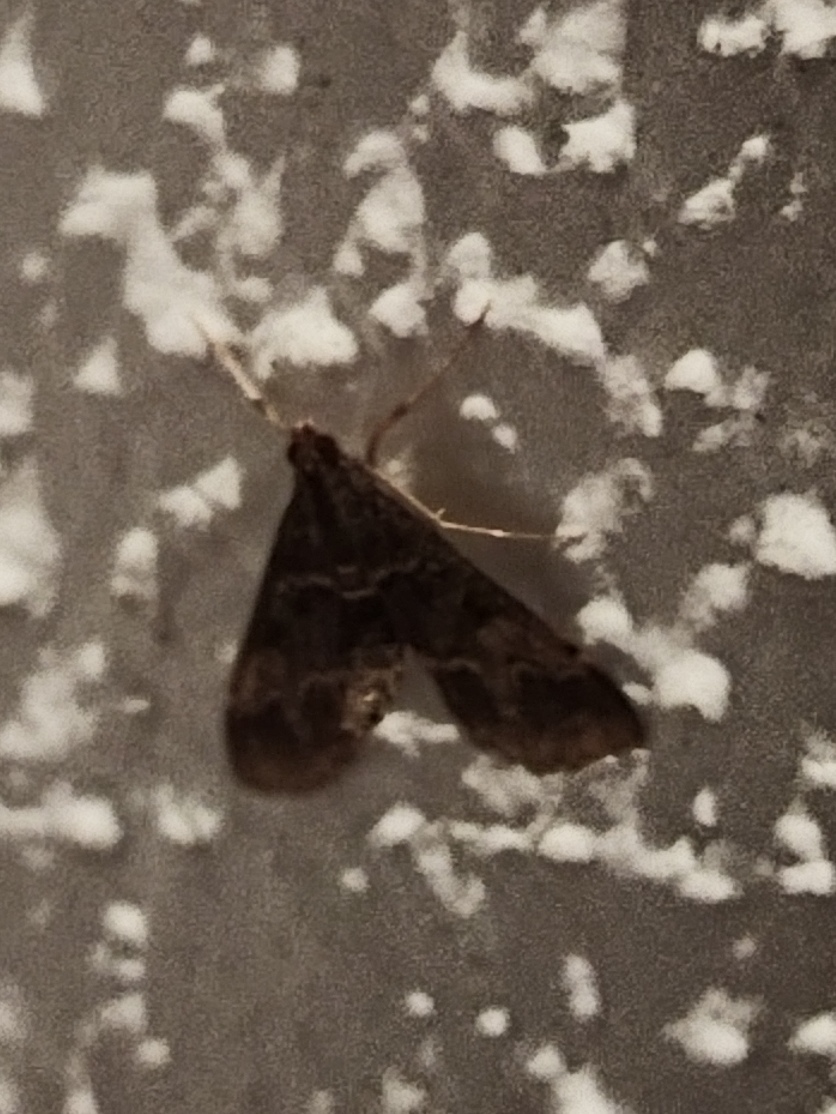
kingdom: Animalia
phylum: Arthropoda
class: Insecta
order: Lepidoptera
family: Crambidae
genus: Duponchelia
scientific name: Duponchelia fovealis
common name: Crambid moth
